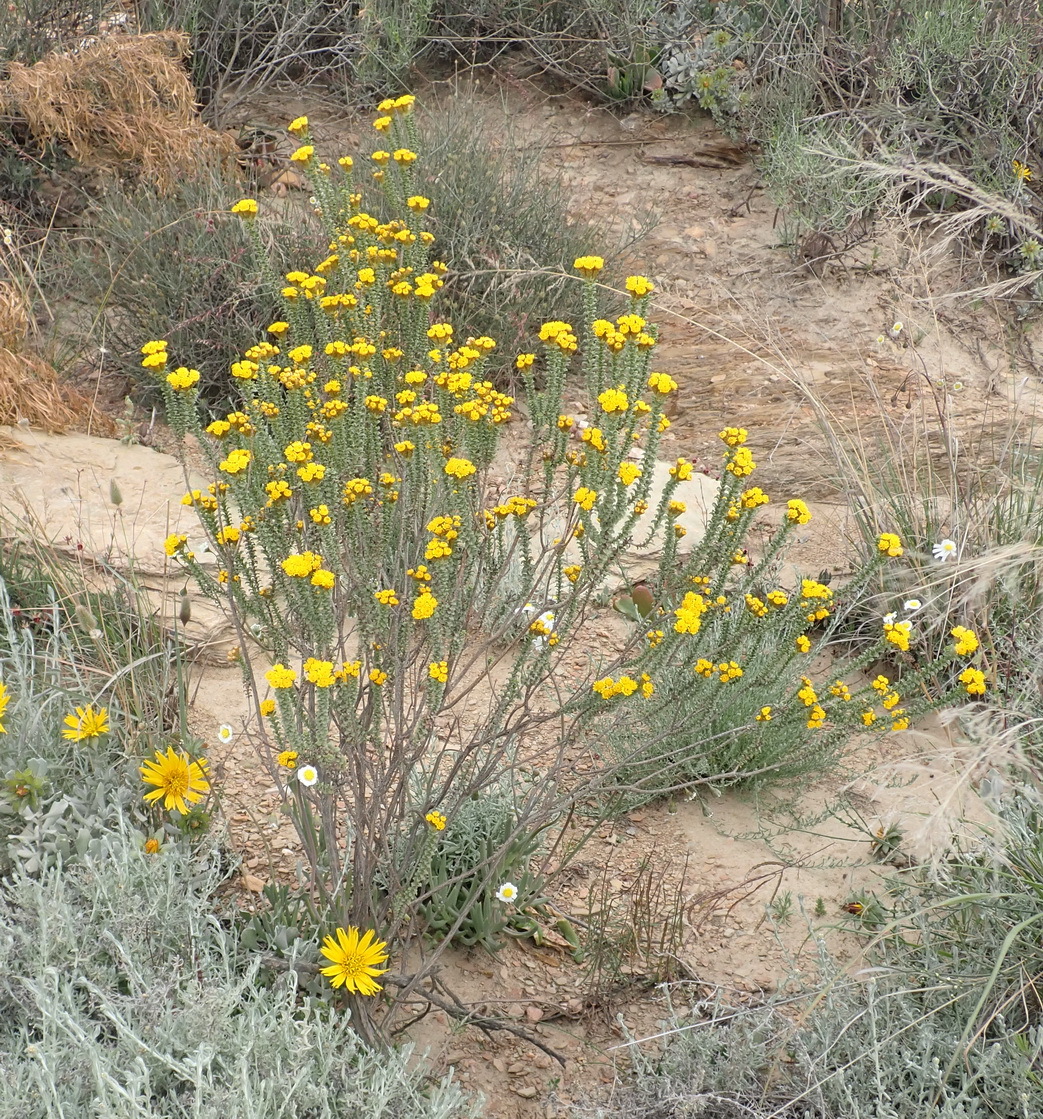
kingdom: Plantae
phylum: Tracheophyta
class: Magnoliopsida
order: Asterales
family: Asteraceae
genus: Oedera
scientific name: Oedera squarrosa
